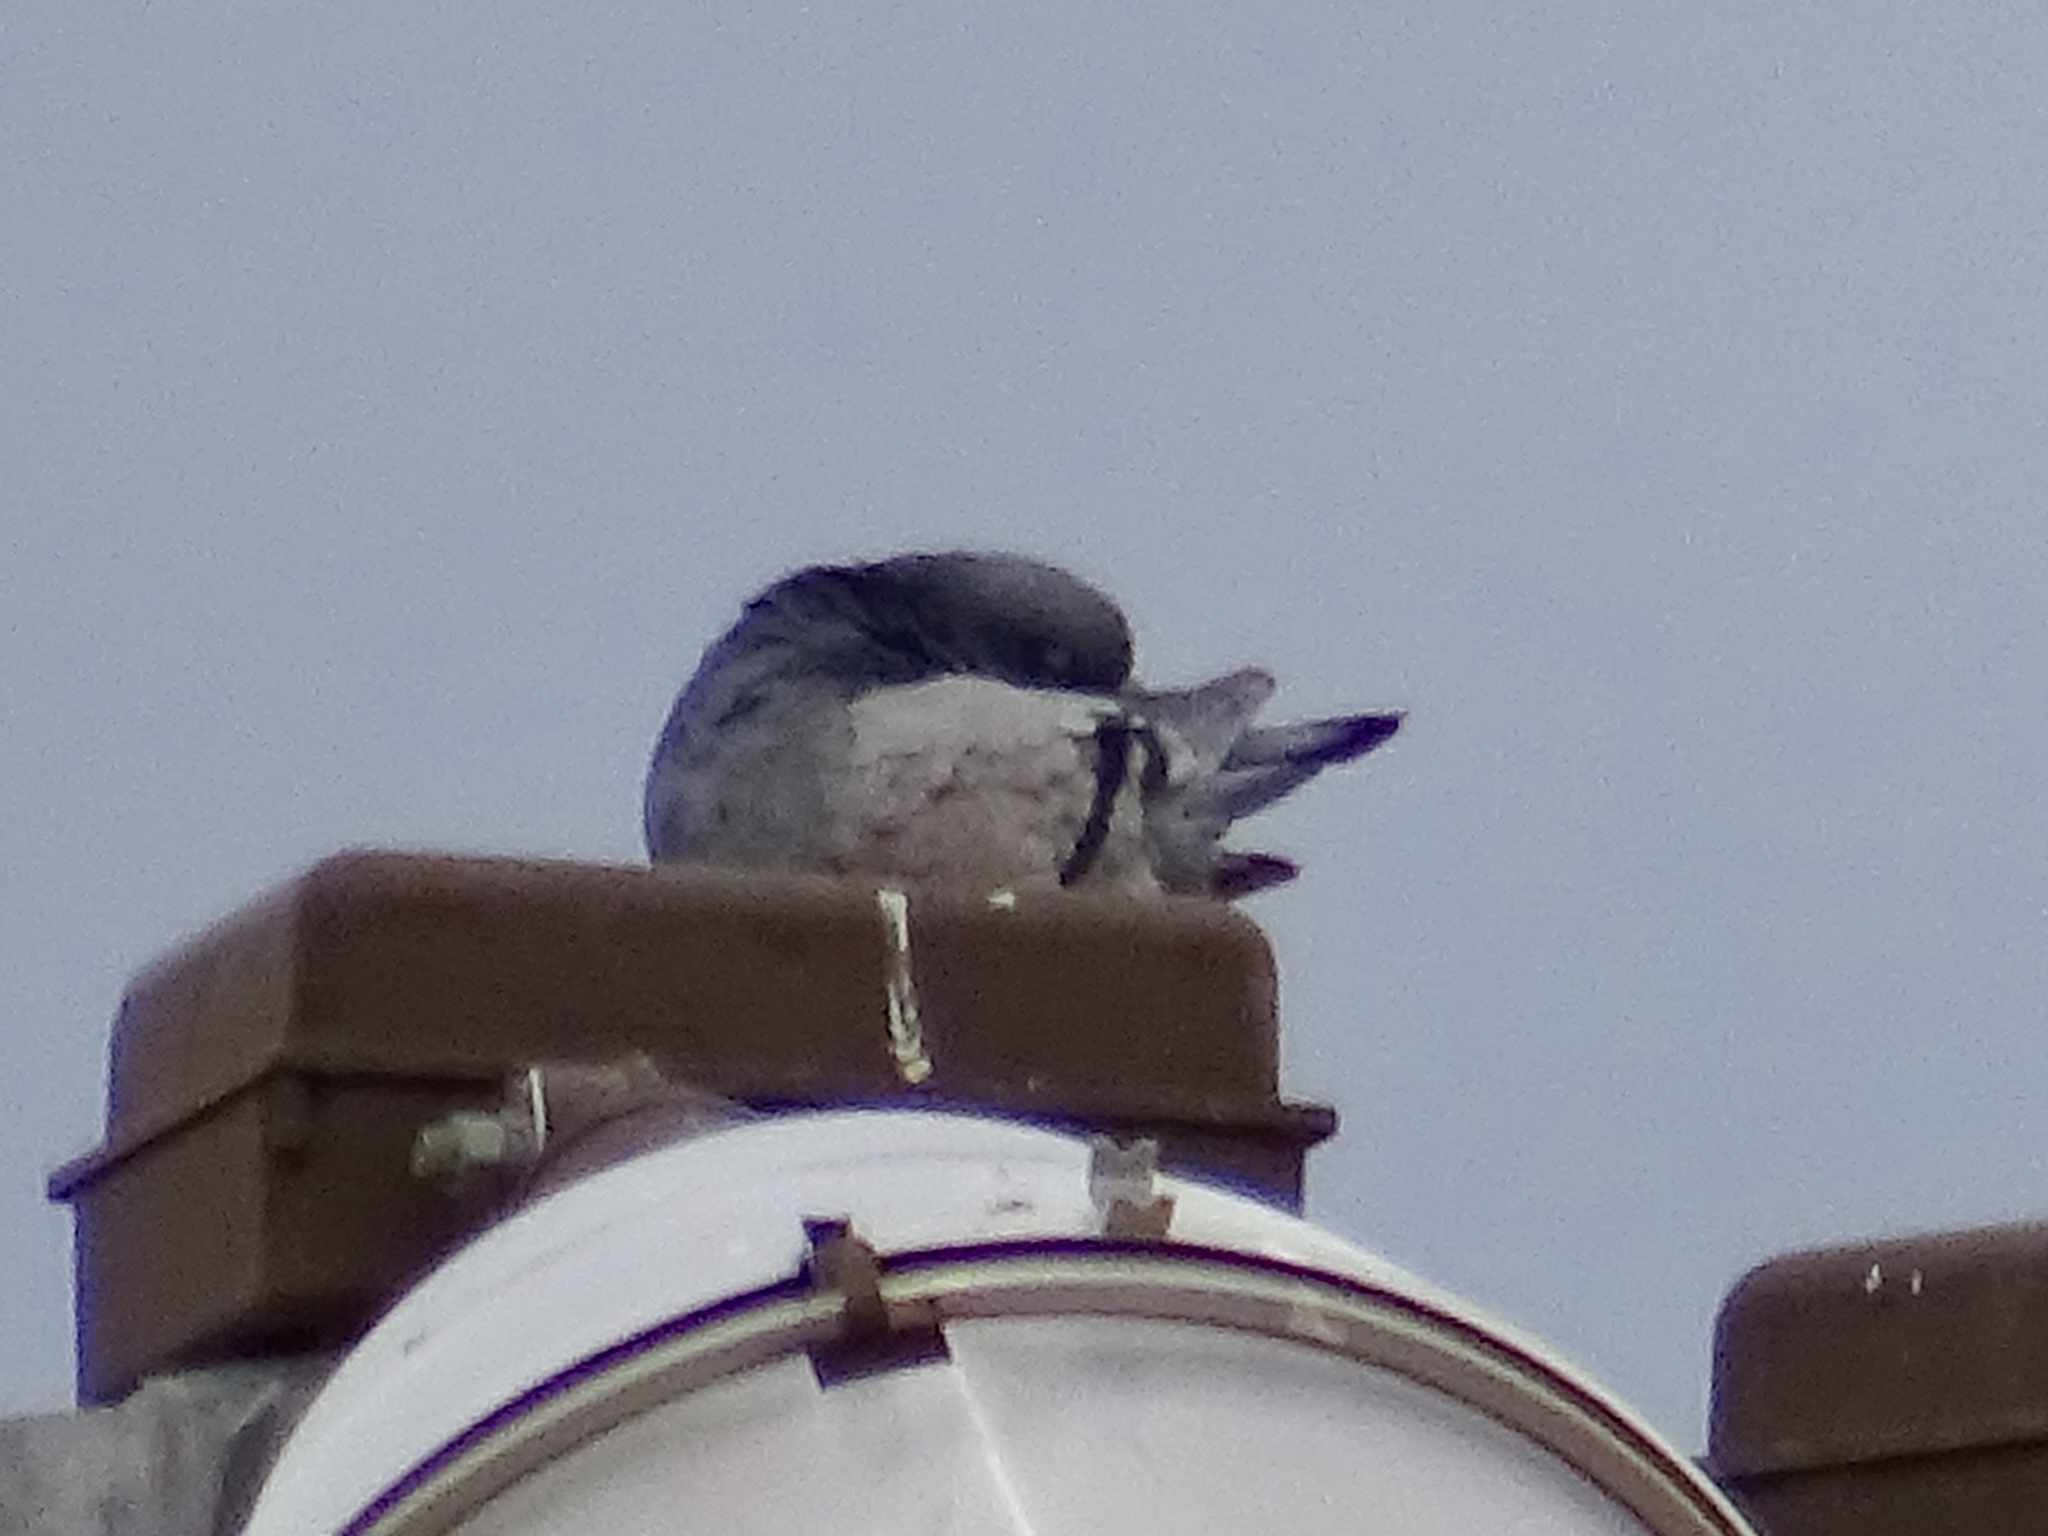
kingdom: Animalia
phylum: Chordata
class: Aves
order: Columbiformes
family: Columbidae
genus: Columba
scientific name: Columba livia
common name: Rock pigeon
